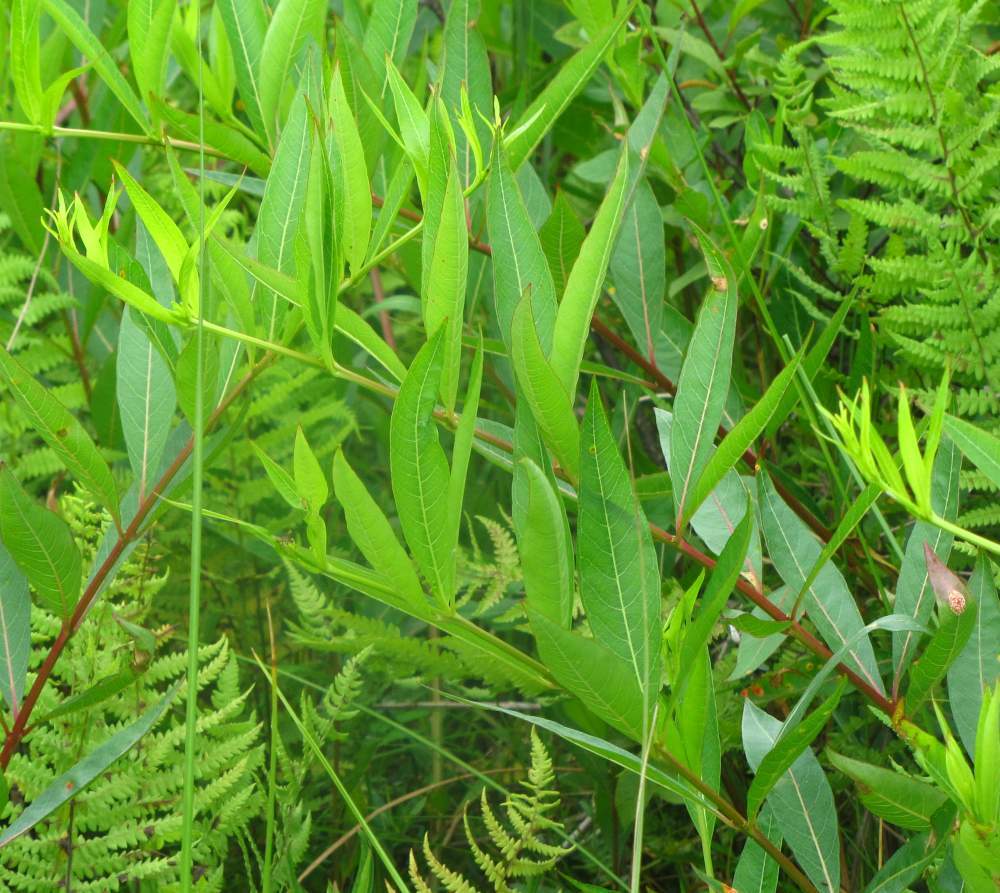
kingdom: Plantae
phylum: Tracheophyta
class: Magnoliopsida
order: Myrtales
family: Lythraceae
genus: Decodon
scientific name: Decodon verticillatus
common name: Hairy swamp loosestrife
